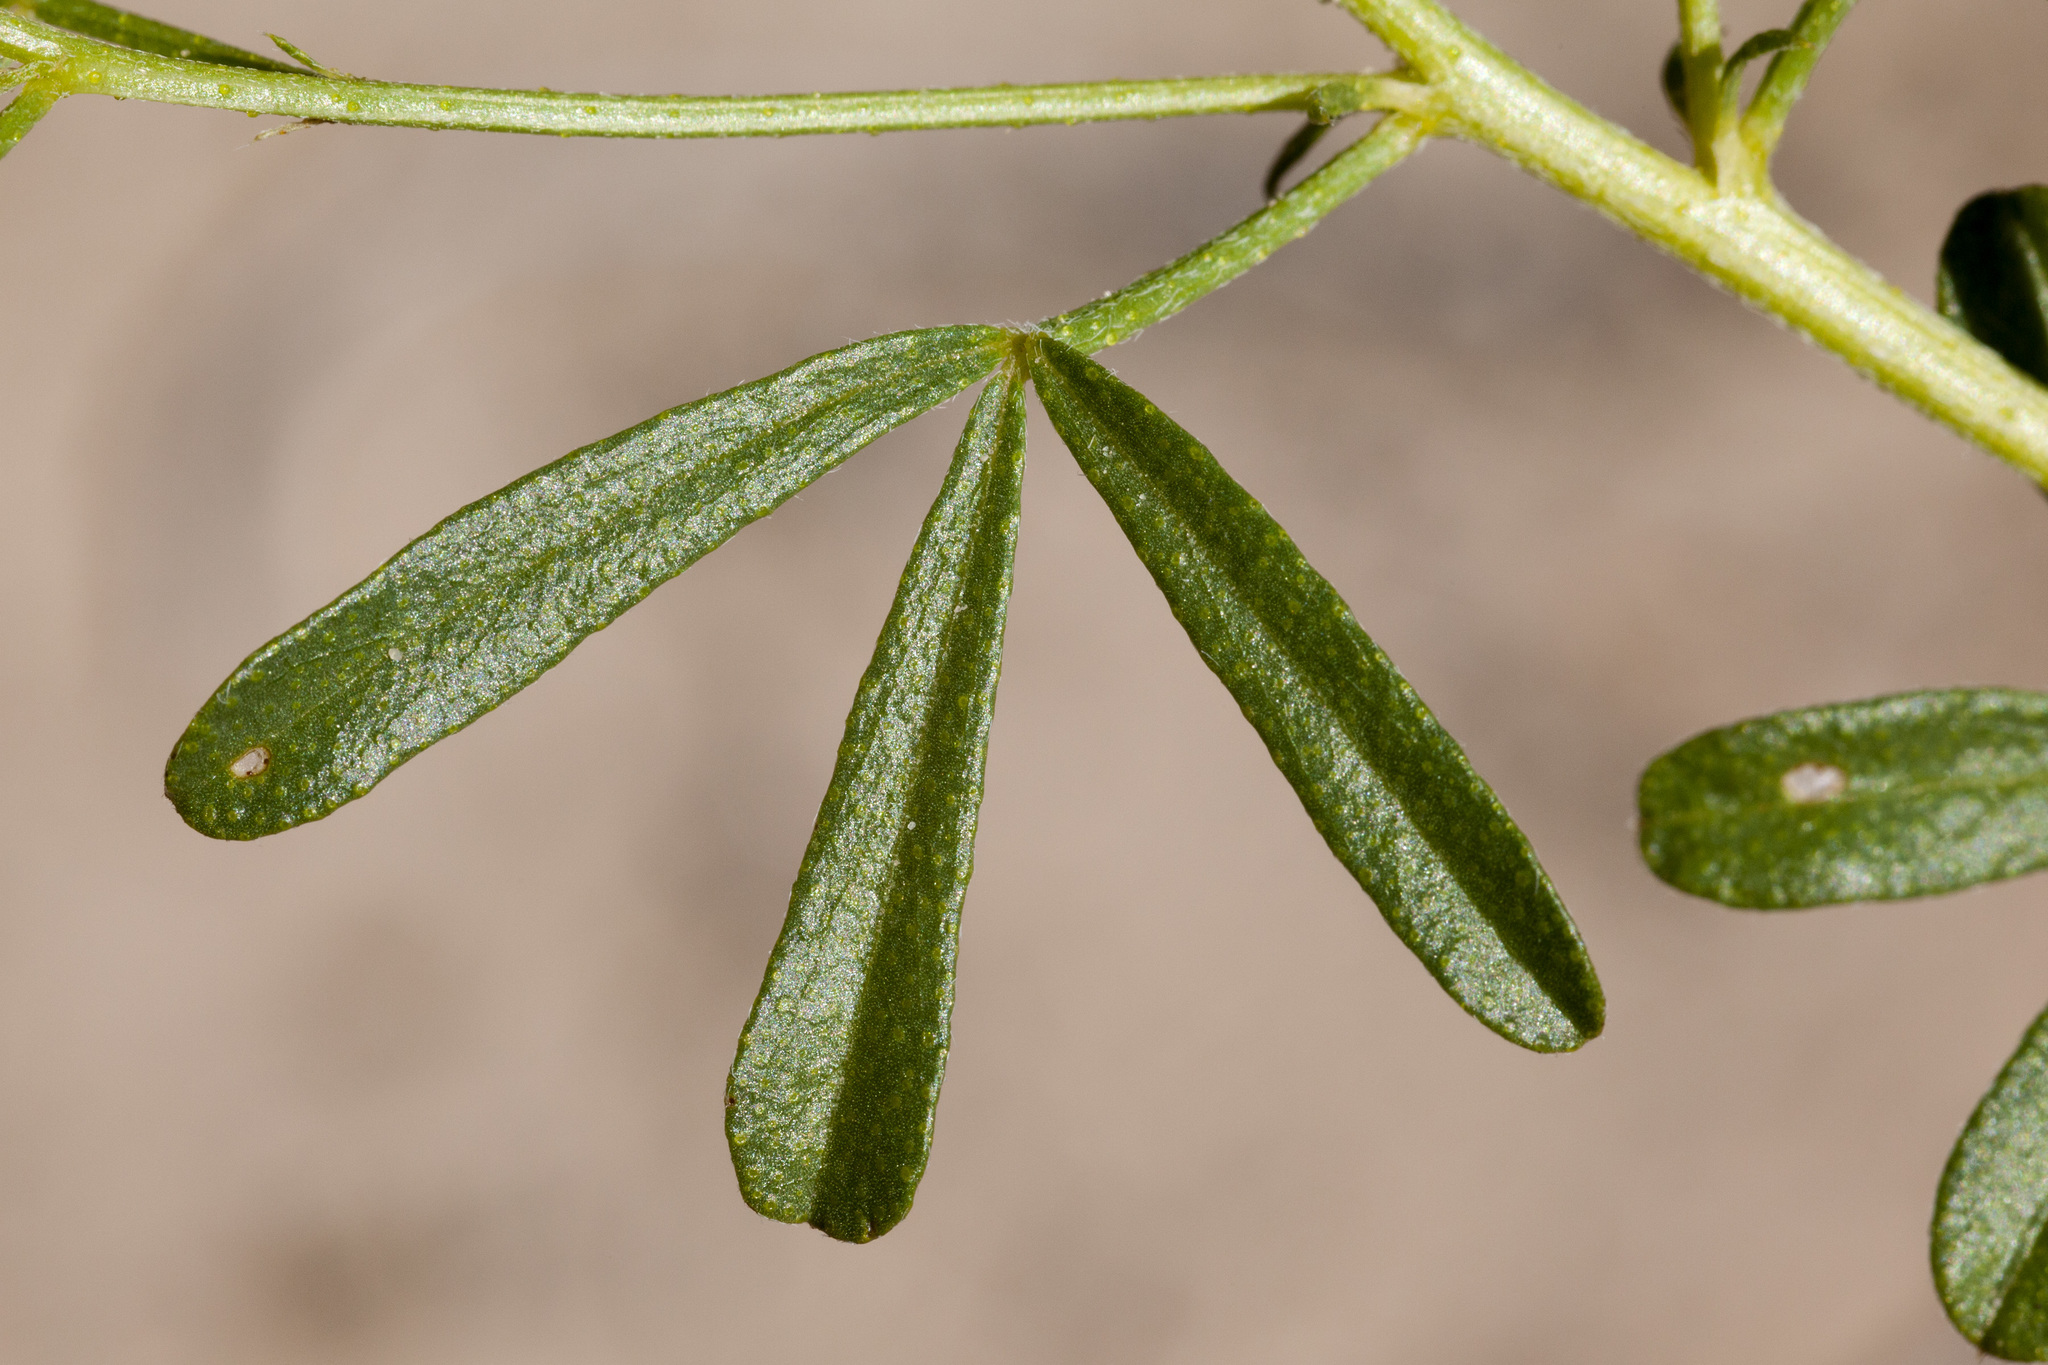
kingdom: Plantae
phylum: Tracheophyta
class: Magnoliopsida
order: Fabales
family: Fabaceae
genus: Ladeania
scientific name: Ladeania lanceolata
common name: Dune scurf-pea
